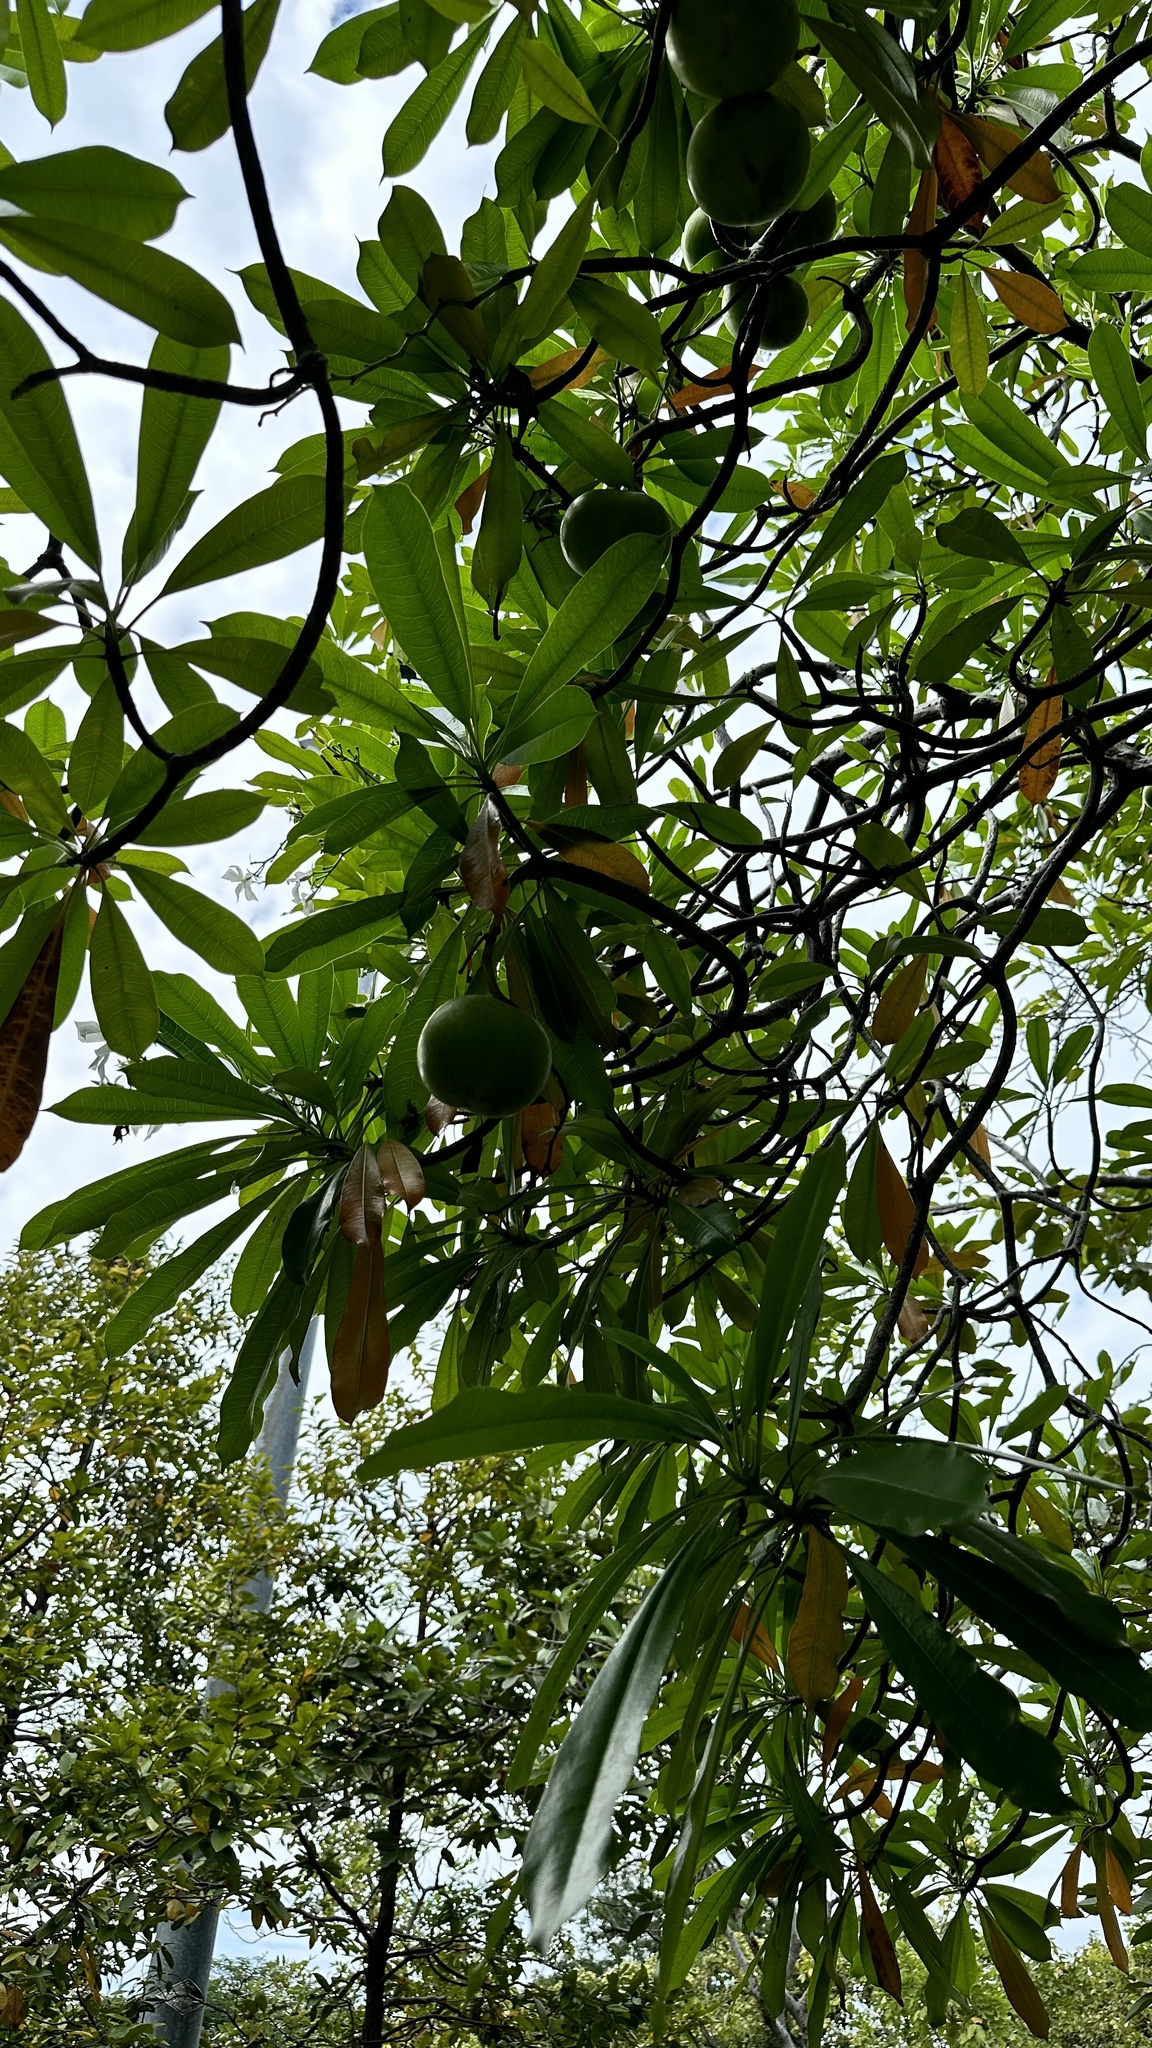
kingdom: Plantae
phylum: Tracheophyta
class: Magnoliopsida
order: Gentianales
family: Apocynaceae
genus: Cerbera
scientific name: Cerbera odollam
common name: Pong-pong
